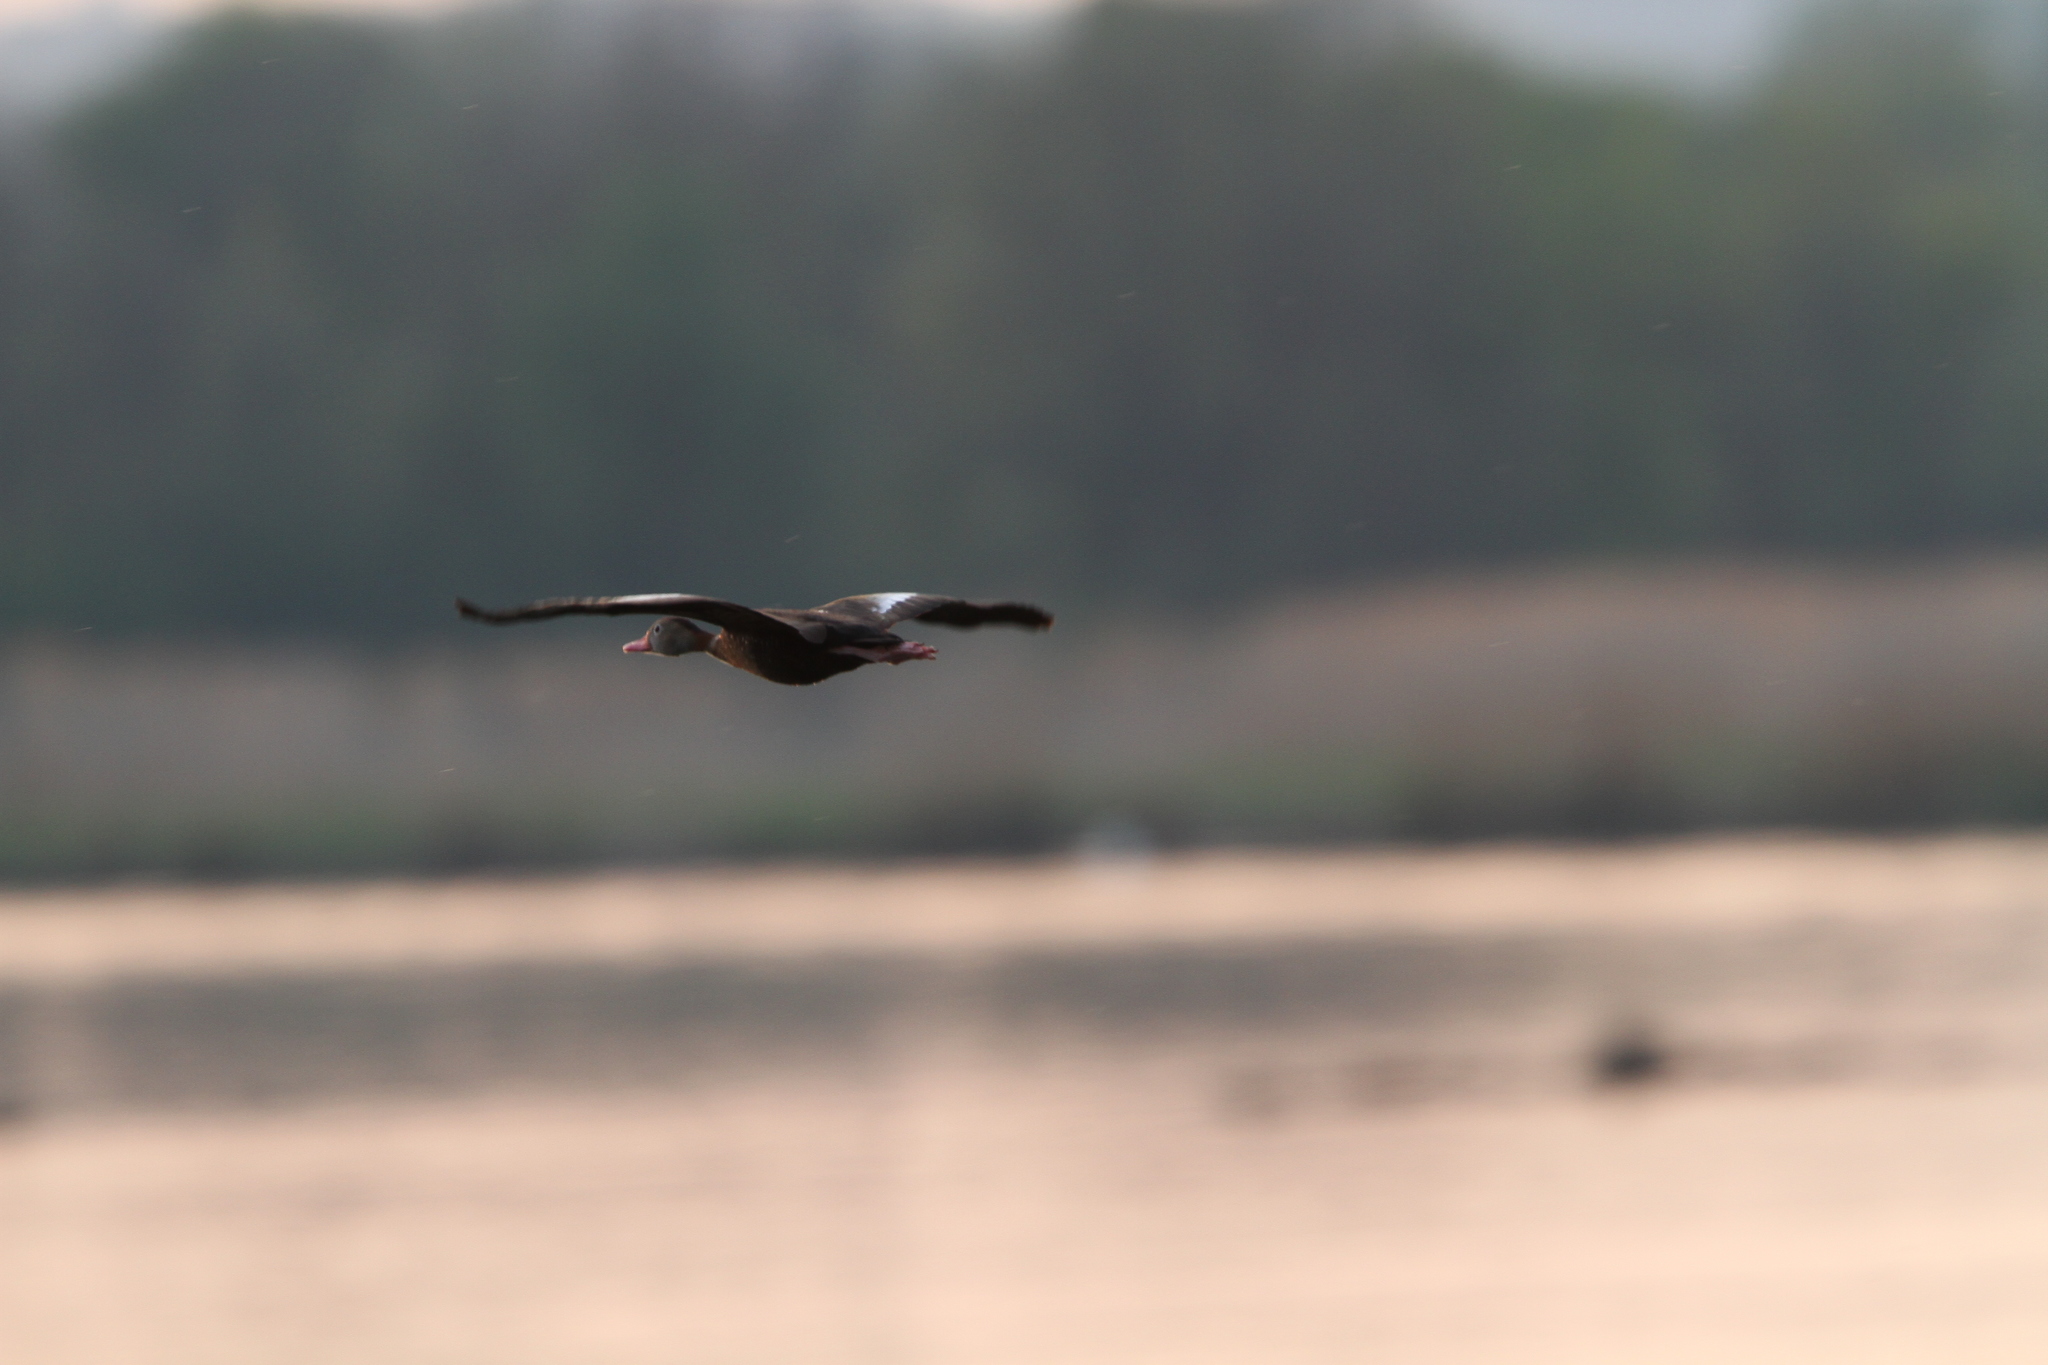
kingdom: Animalia
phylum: Chordata
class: Aves
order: Anseriformes
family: Anatidae
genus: Dendrocygna
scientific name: Dendrocygna autumnalis
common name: Black-bellied whistling duck
